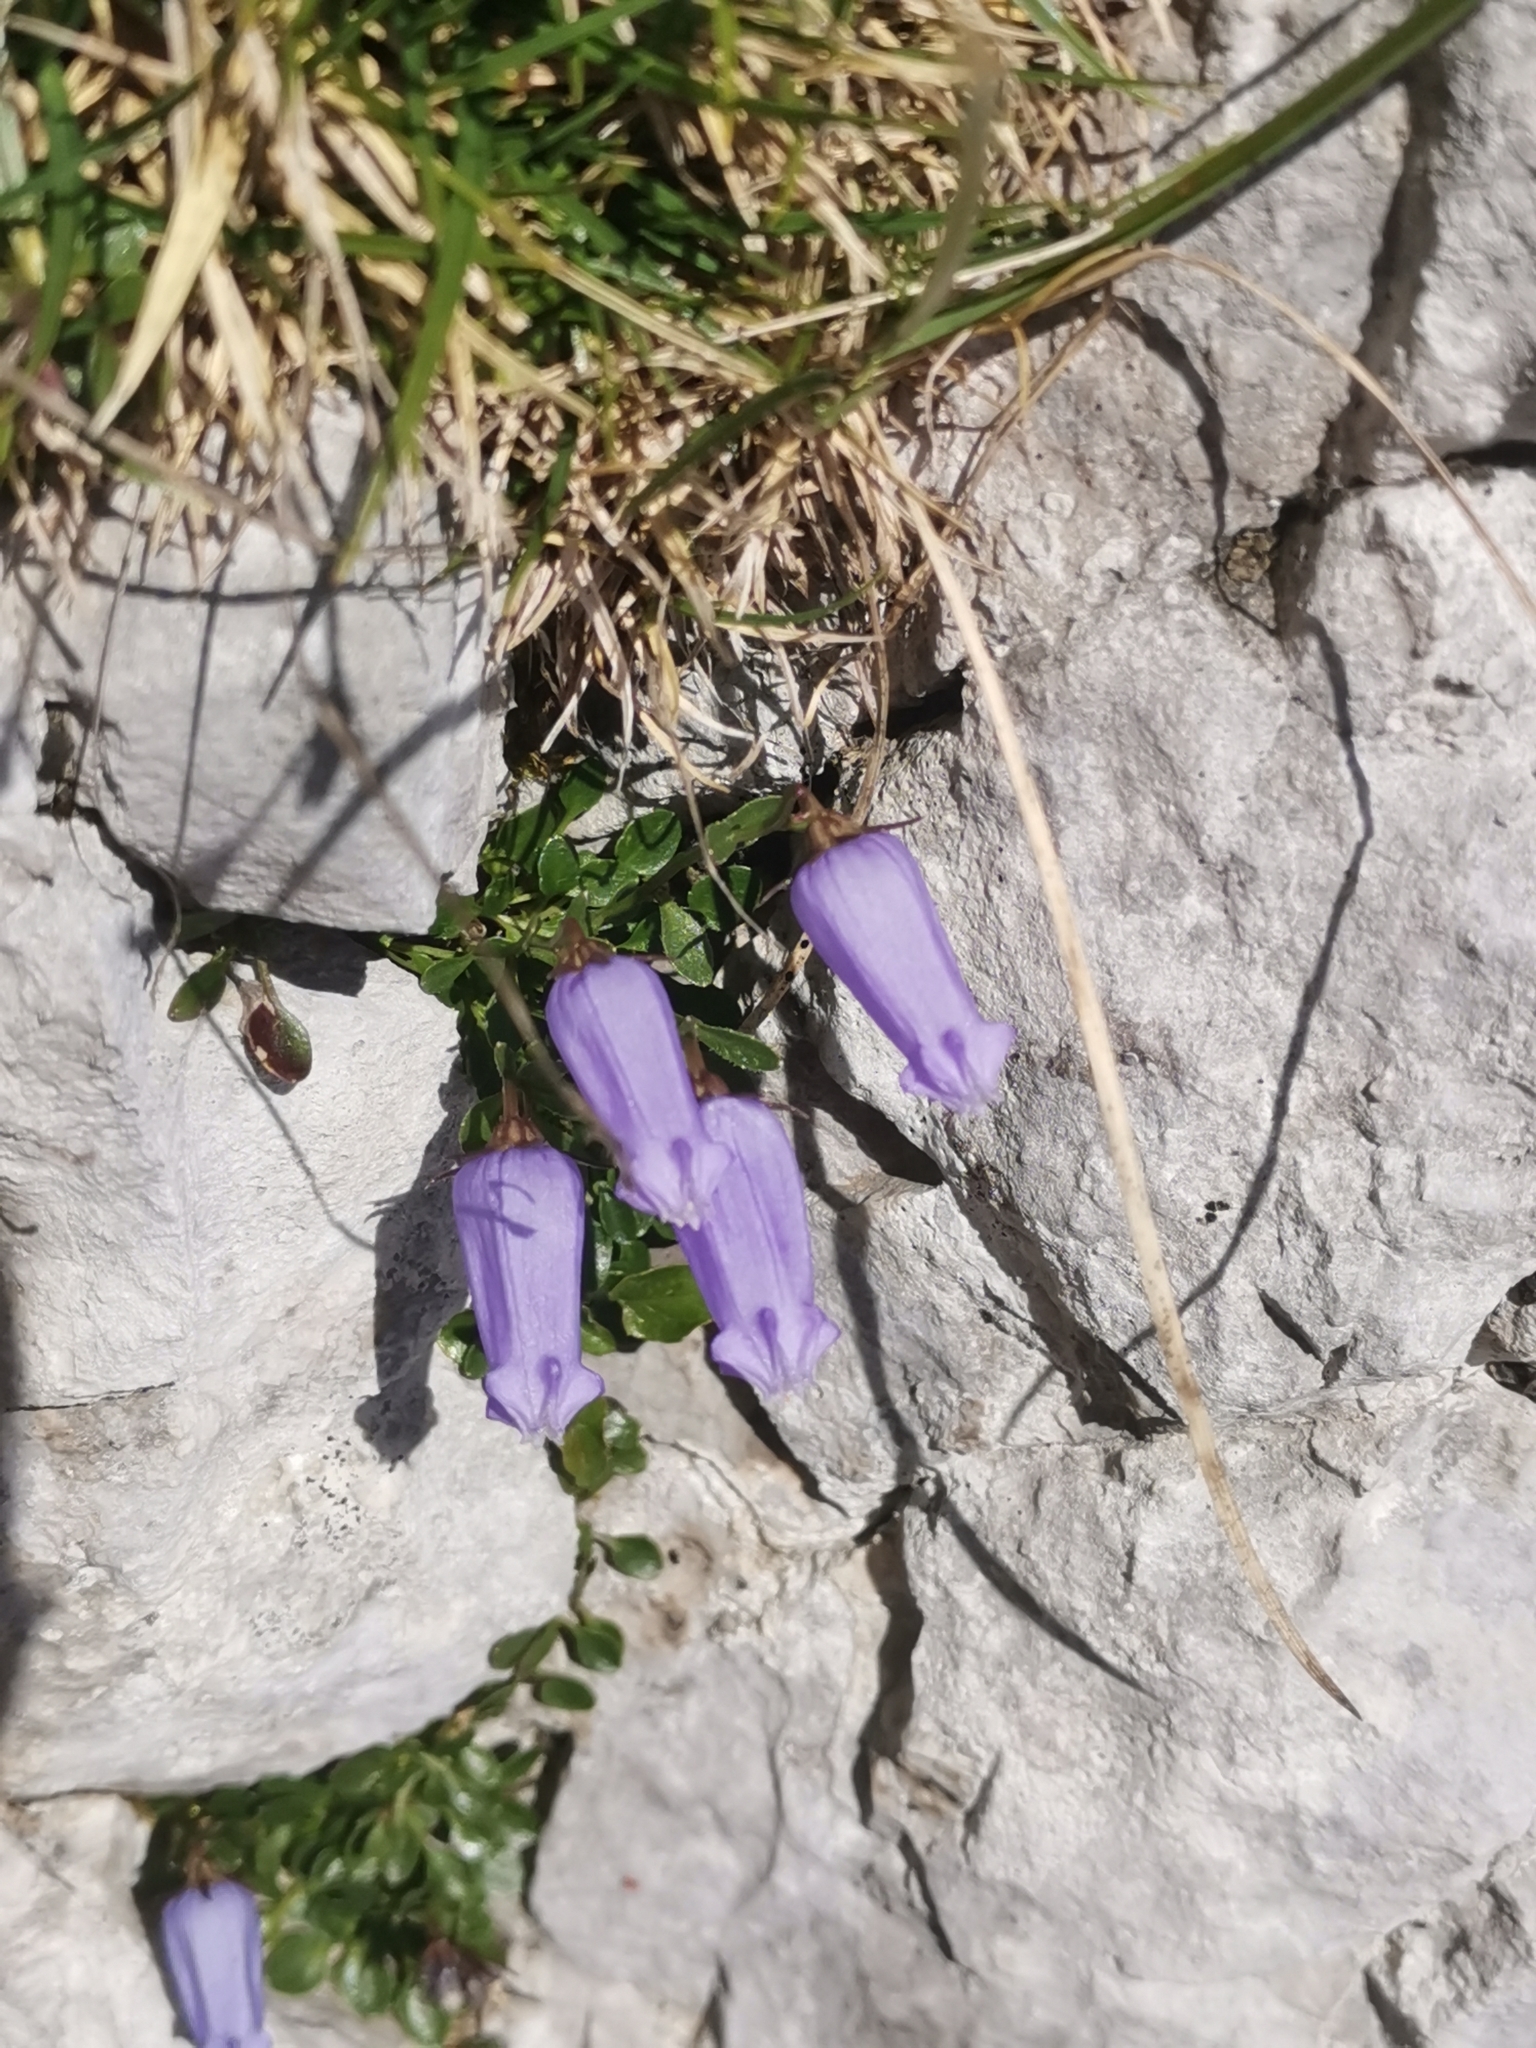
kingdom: Plantae
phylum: Tracheophyta
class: Magnoliopsida
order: Asterales
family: Campanulaceae
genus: Favratia
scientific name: Favratia zoysii
